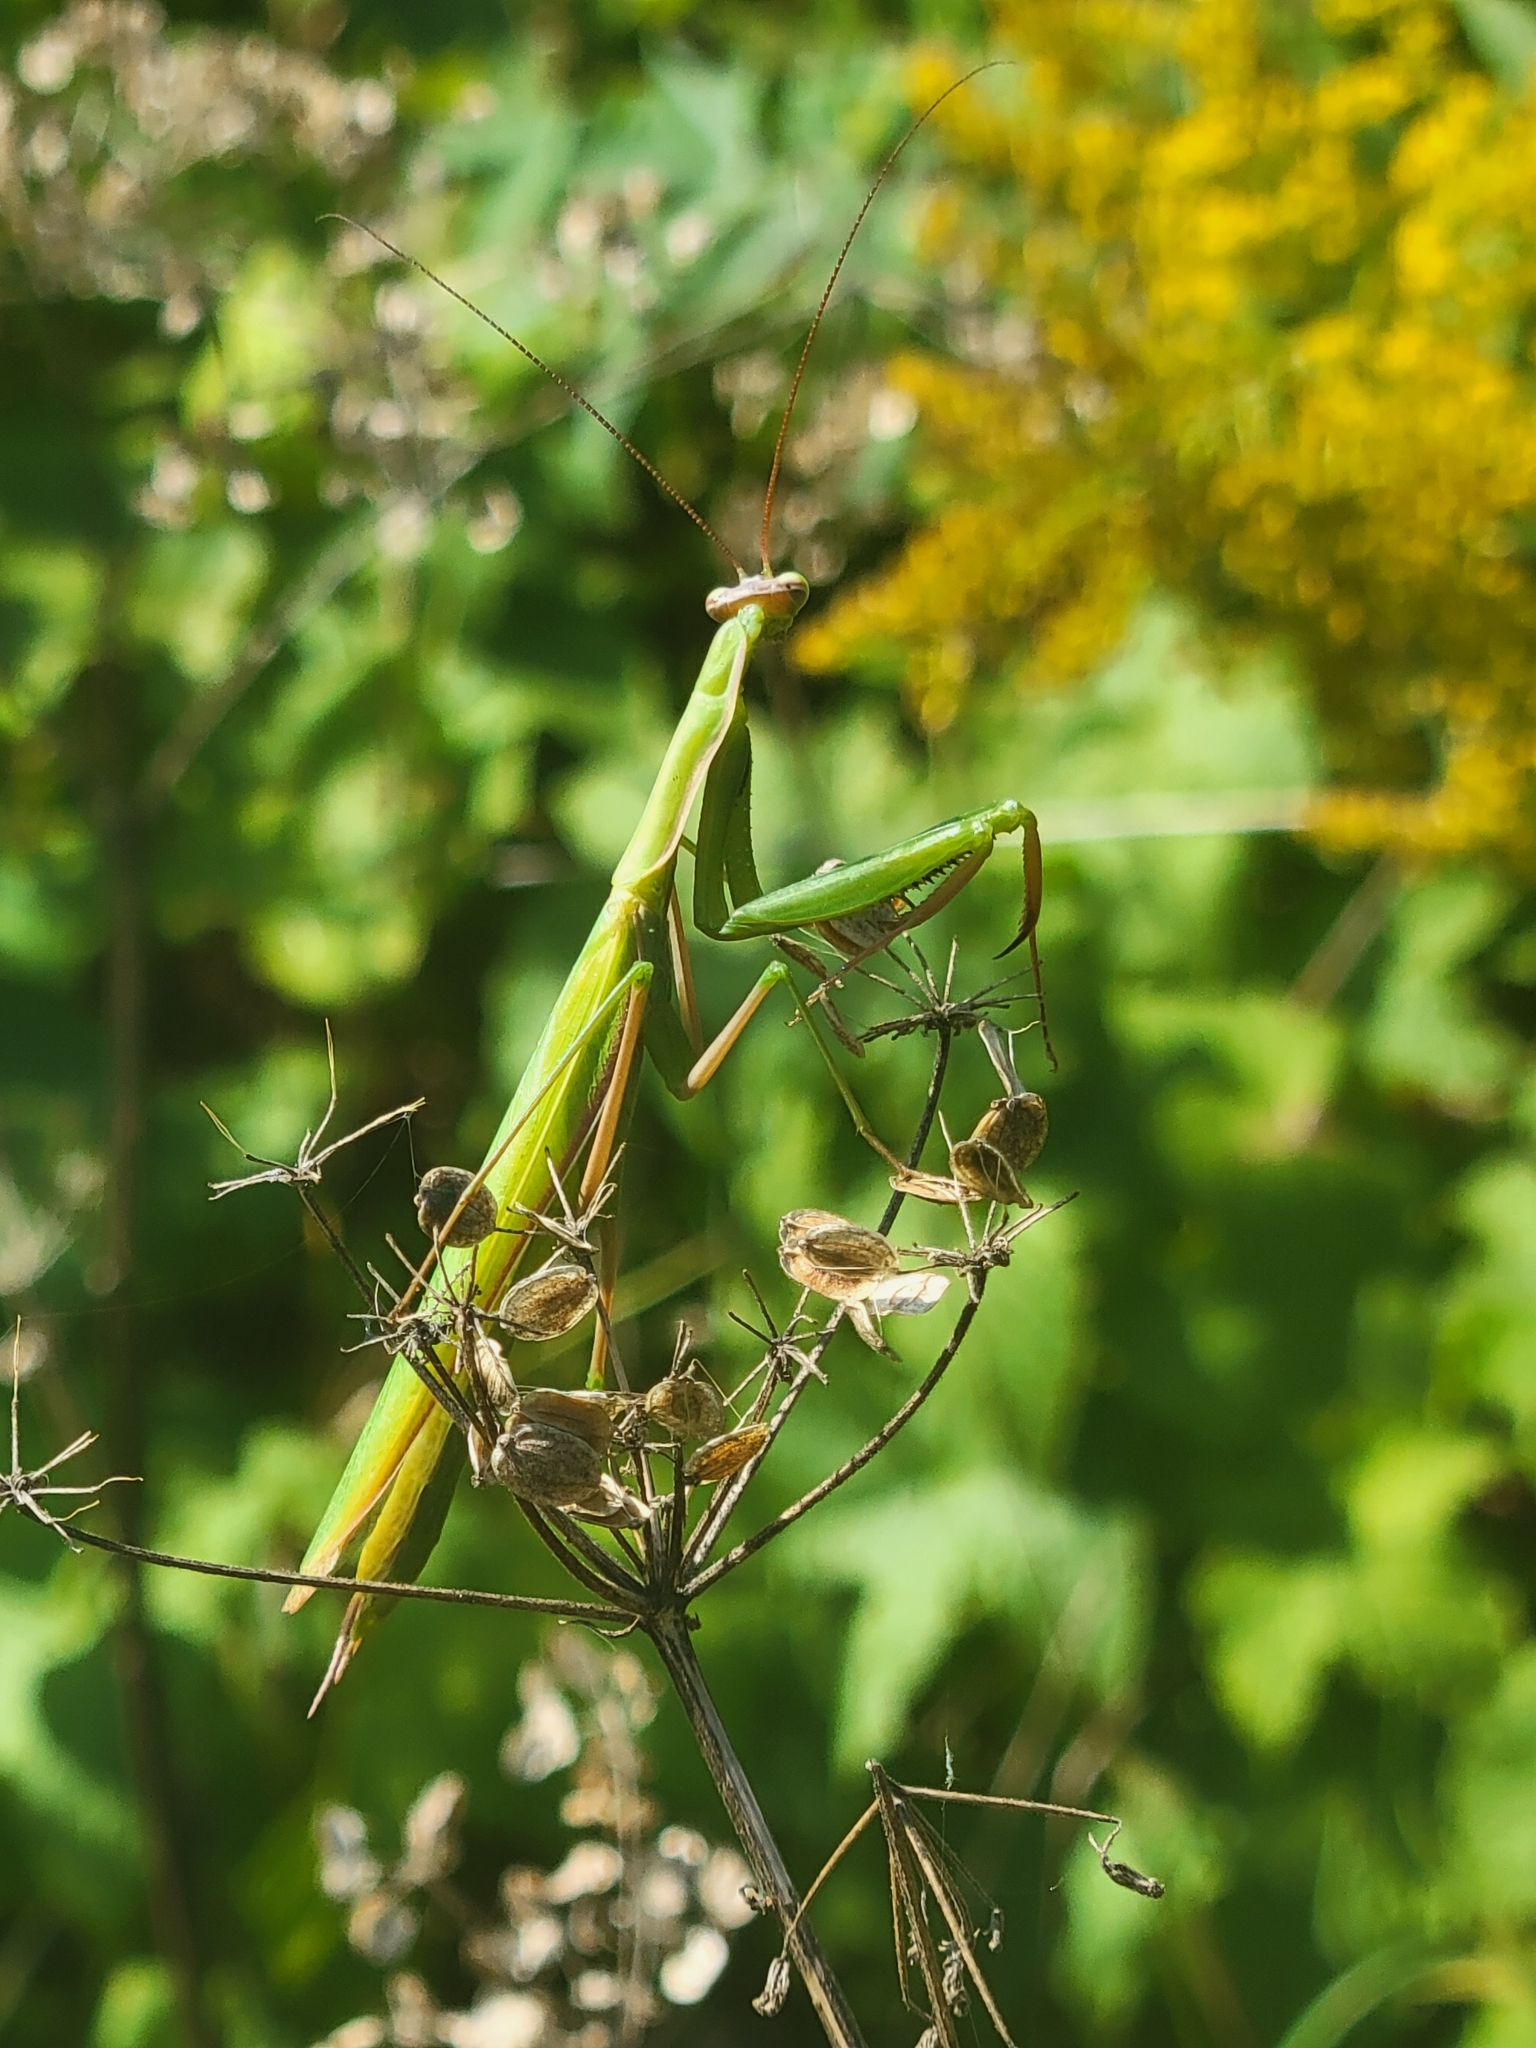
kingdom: Animalia
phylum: Arthropoda
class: Insecta
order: Mantodea
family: Mantidae
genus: Mantis
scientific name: Mantis religiosa
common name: Praying mantis
